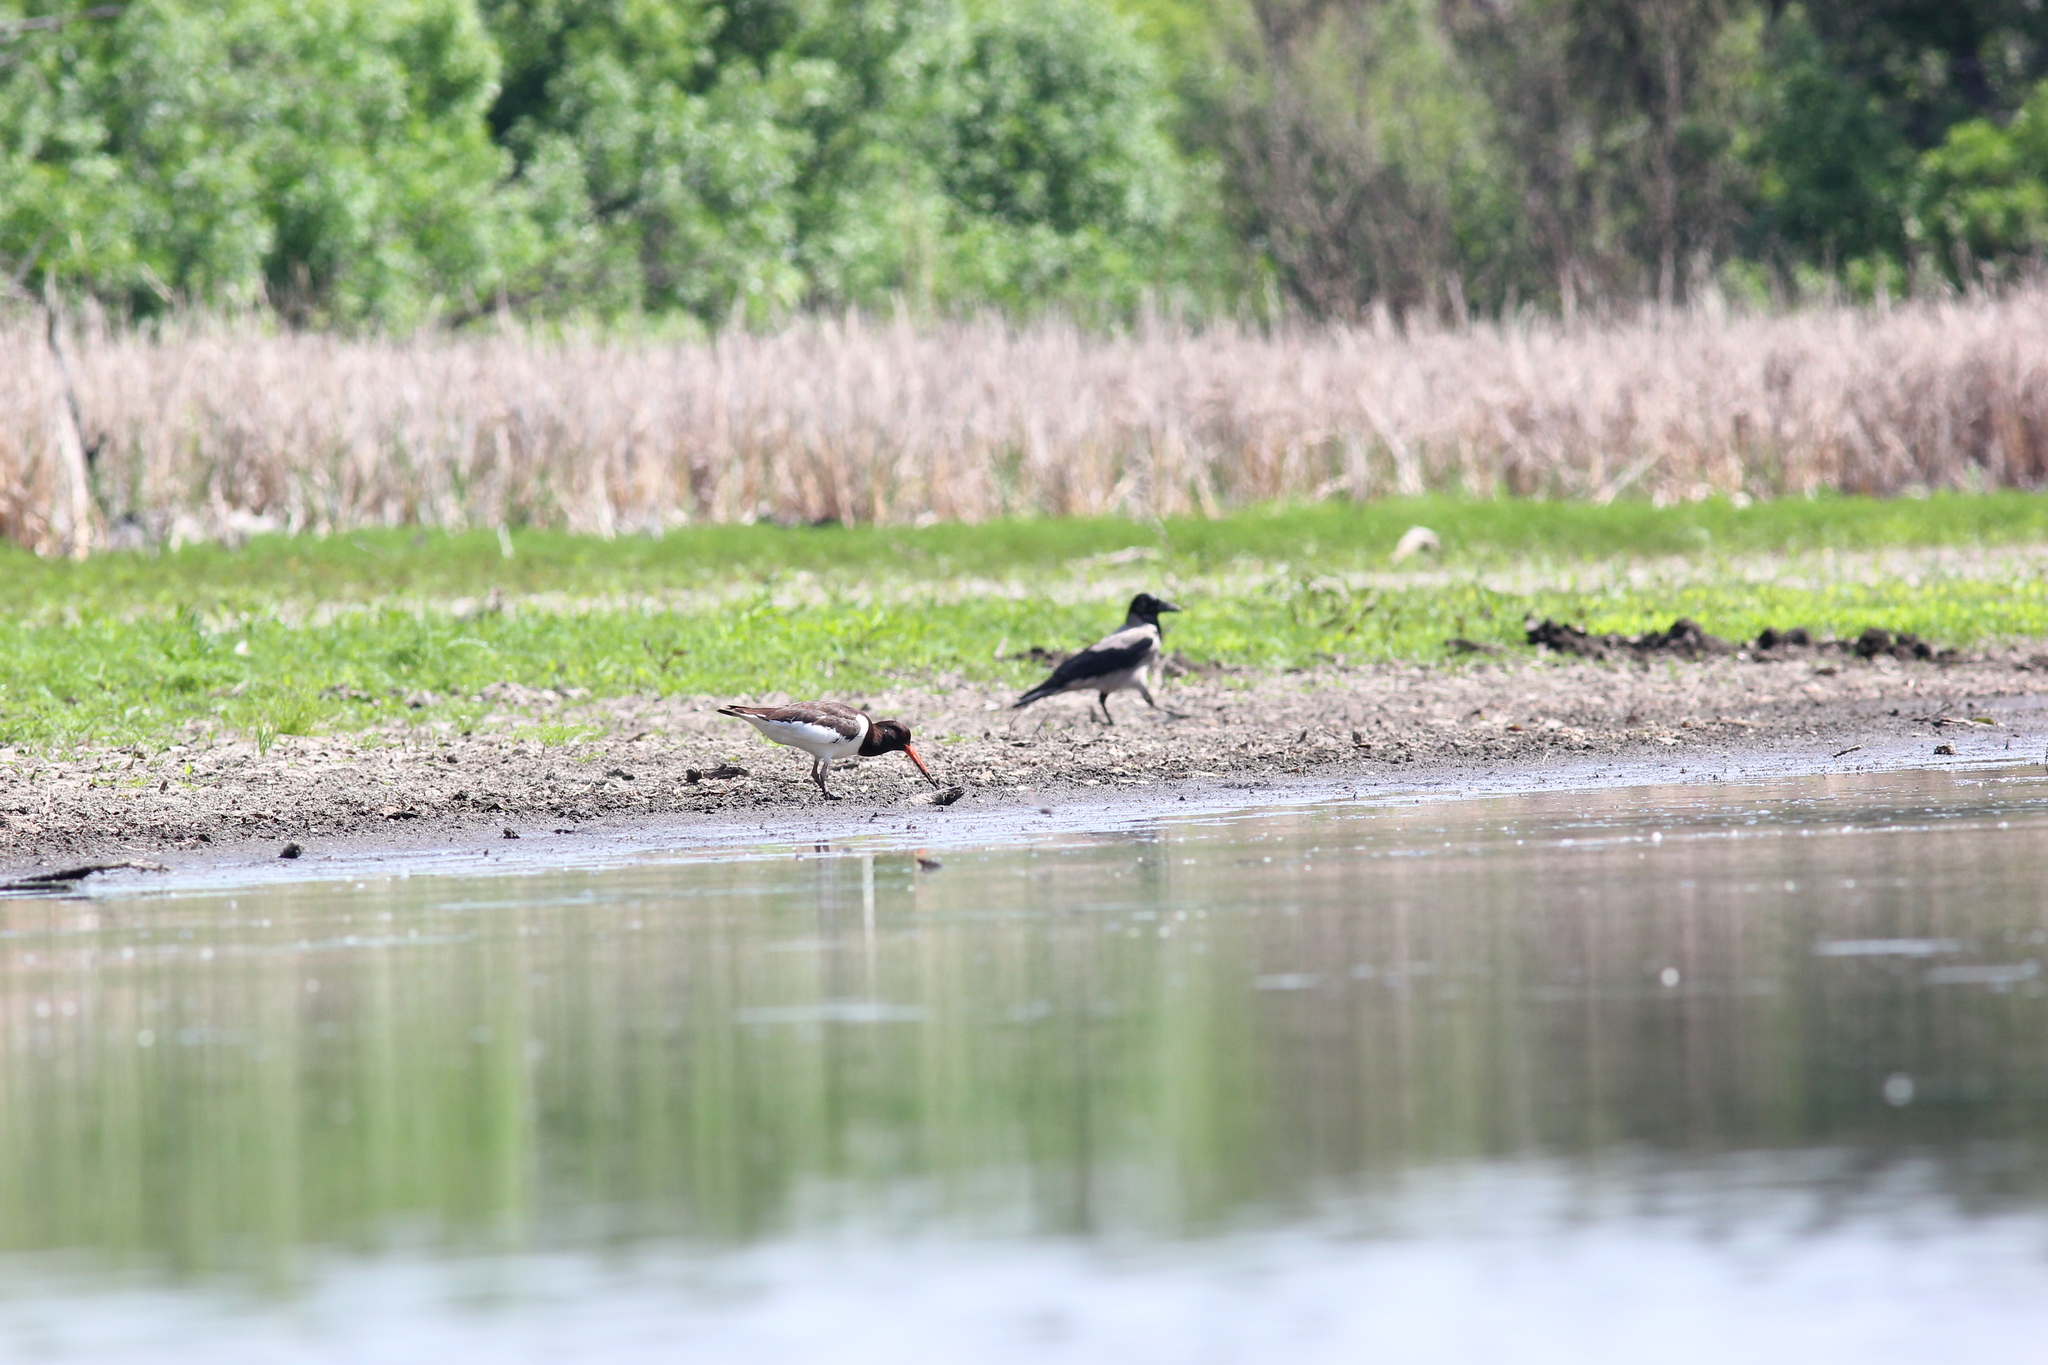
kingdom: Animalia
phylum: Chordata
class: Aves
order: Charadriiformes
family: Haematopodidae
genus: Haematopus
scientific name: Haematopus ostralegus
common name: Eurasian oystercatcher
